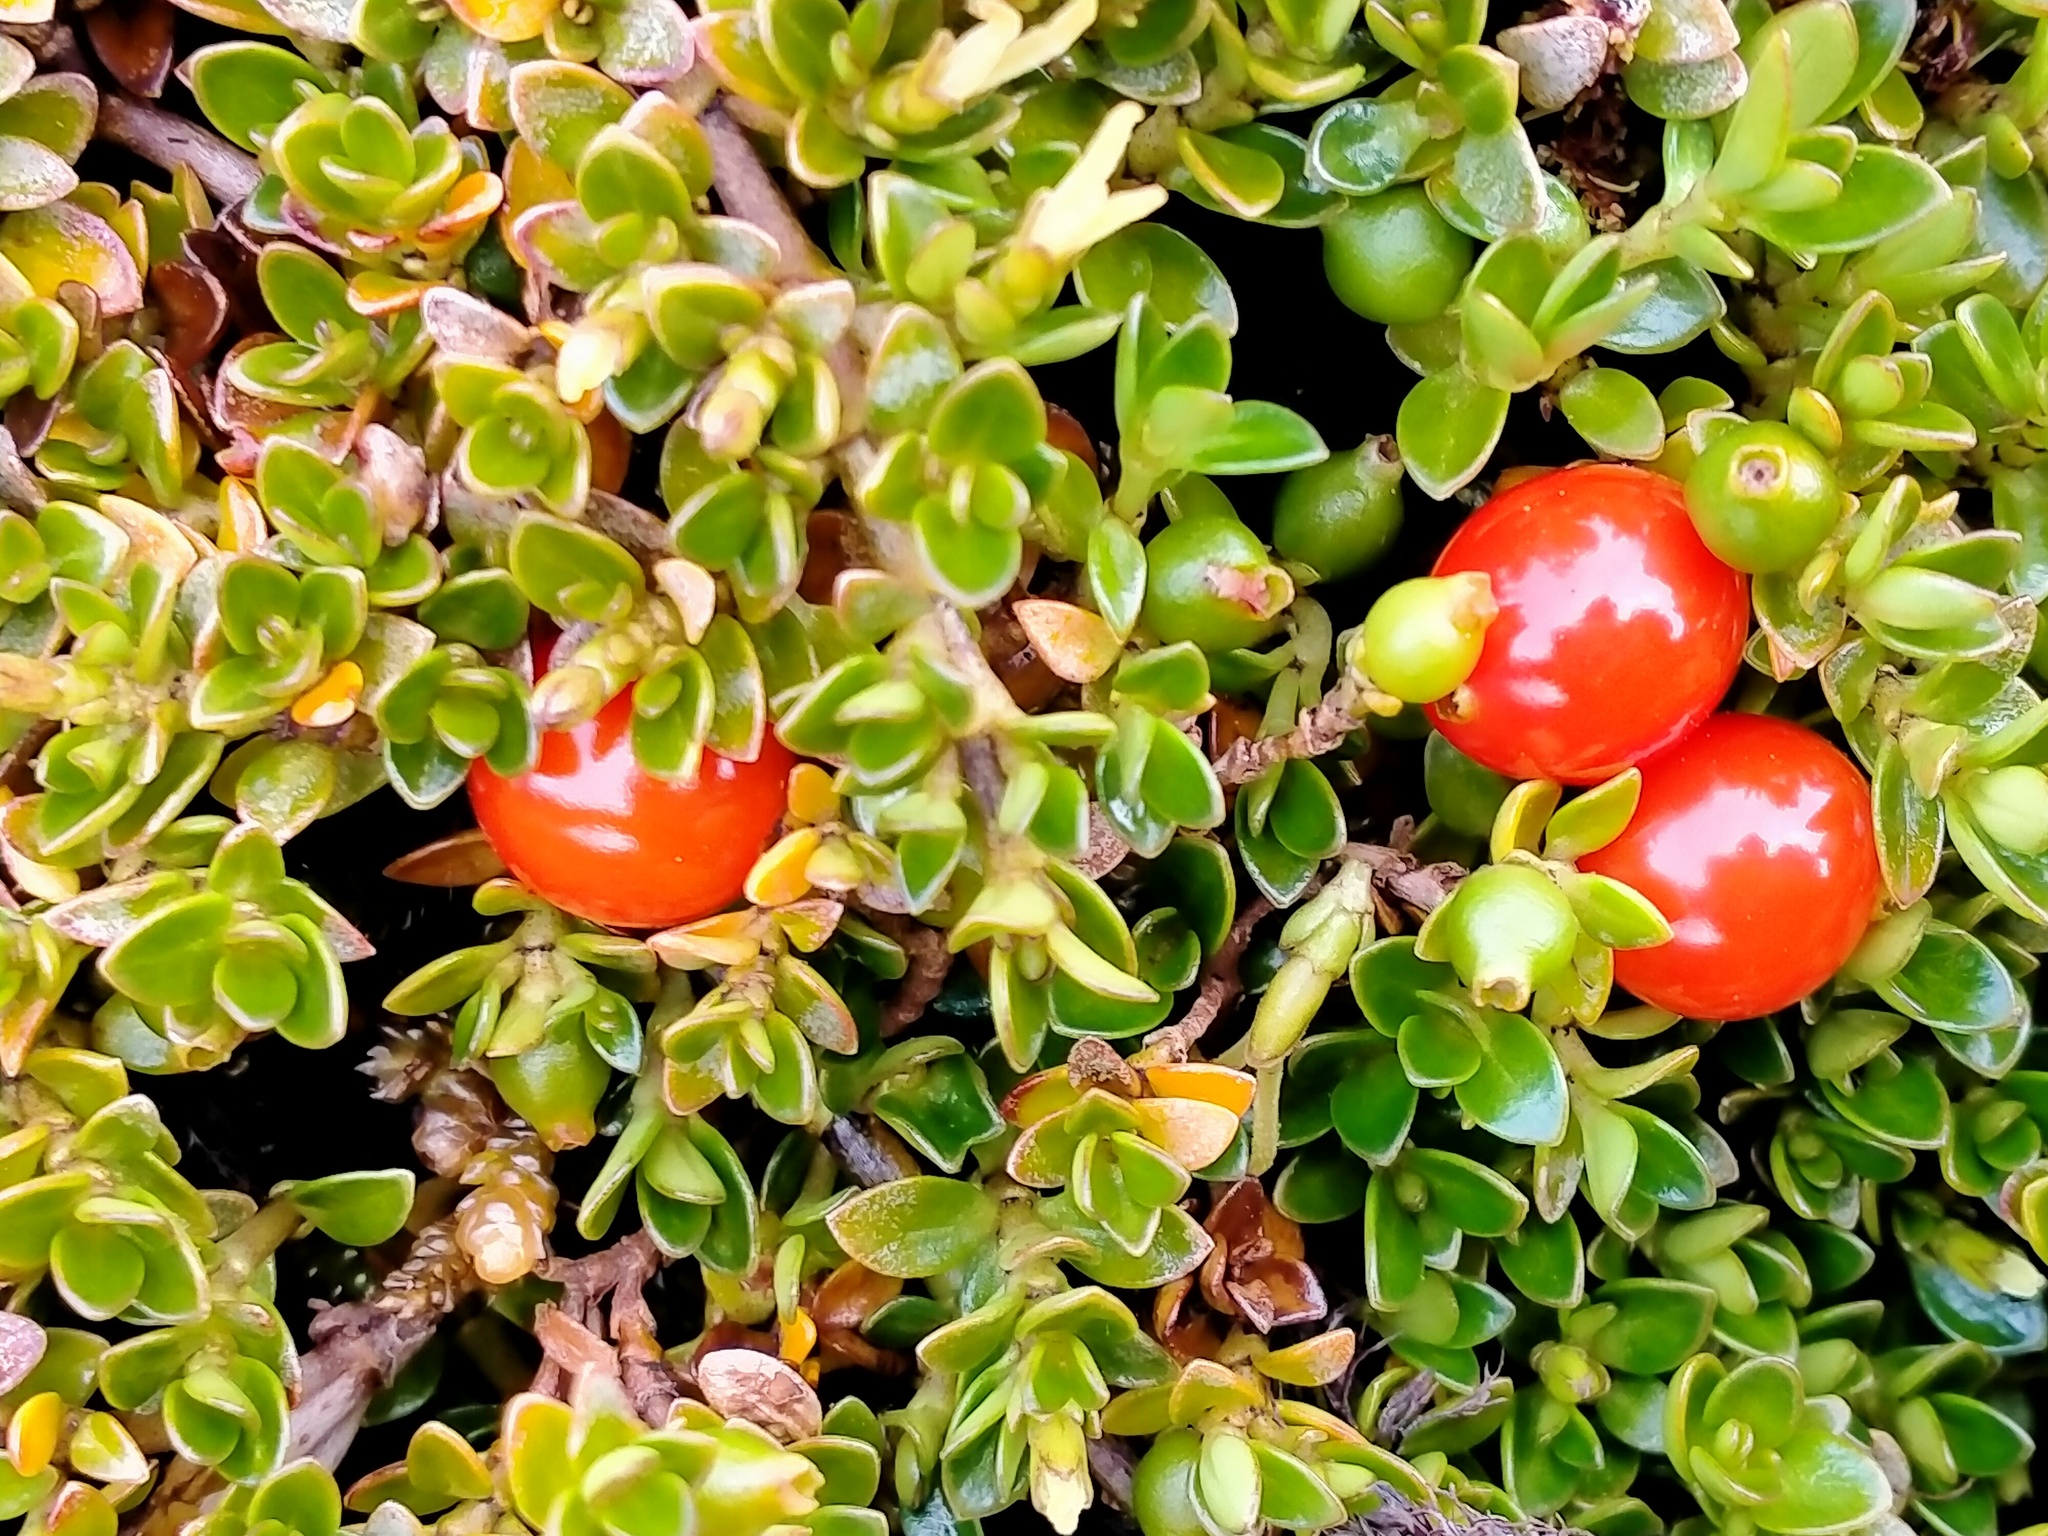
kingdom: Plantae
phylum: Tracheophyta
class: Magnoliopsida
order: Gentianales
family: Rubiaceae
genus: Coprosma
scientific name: Coprosma perpusilla
